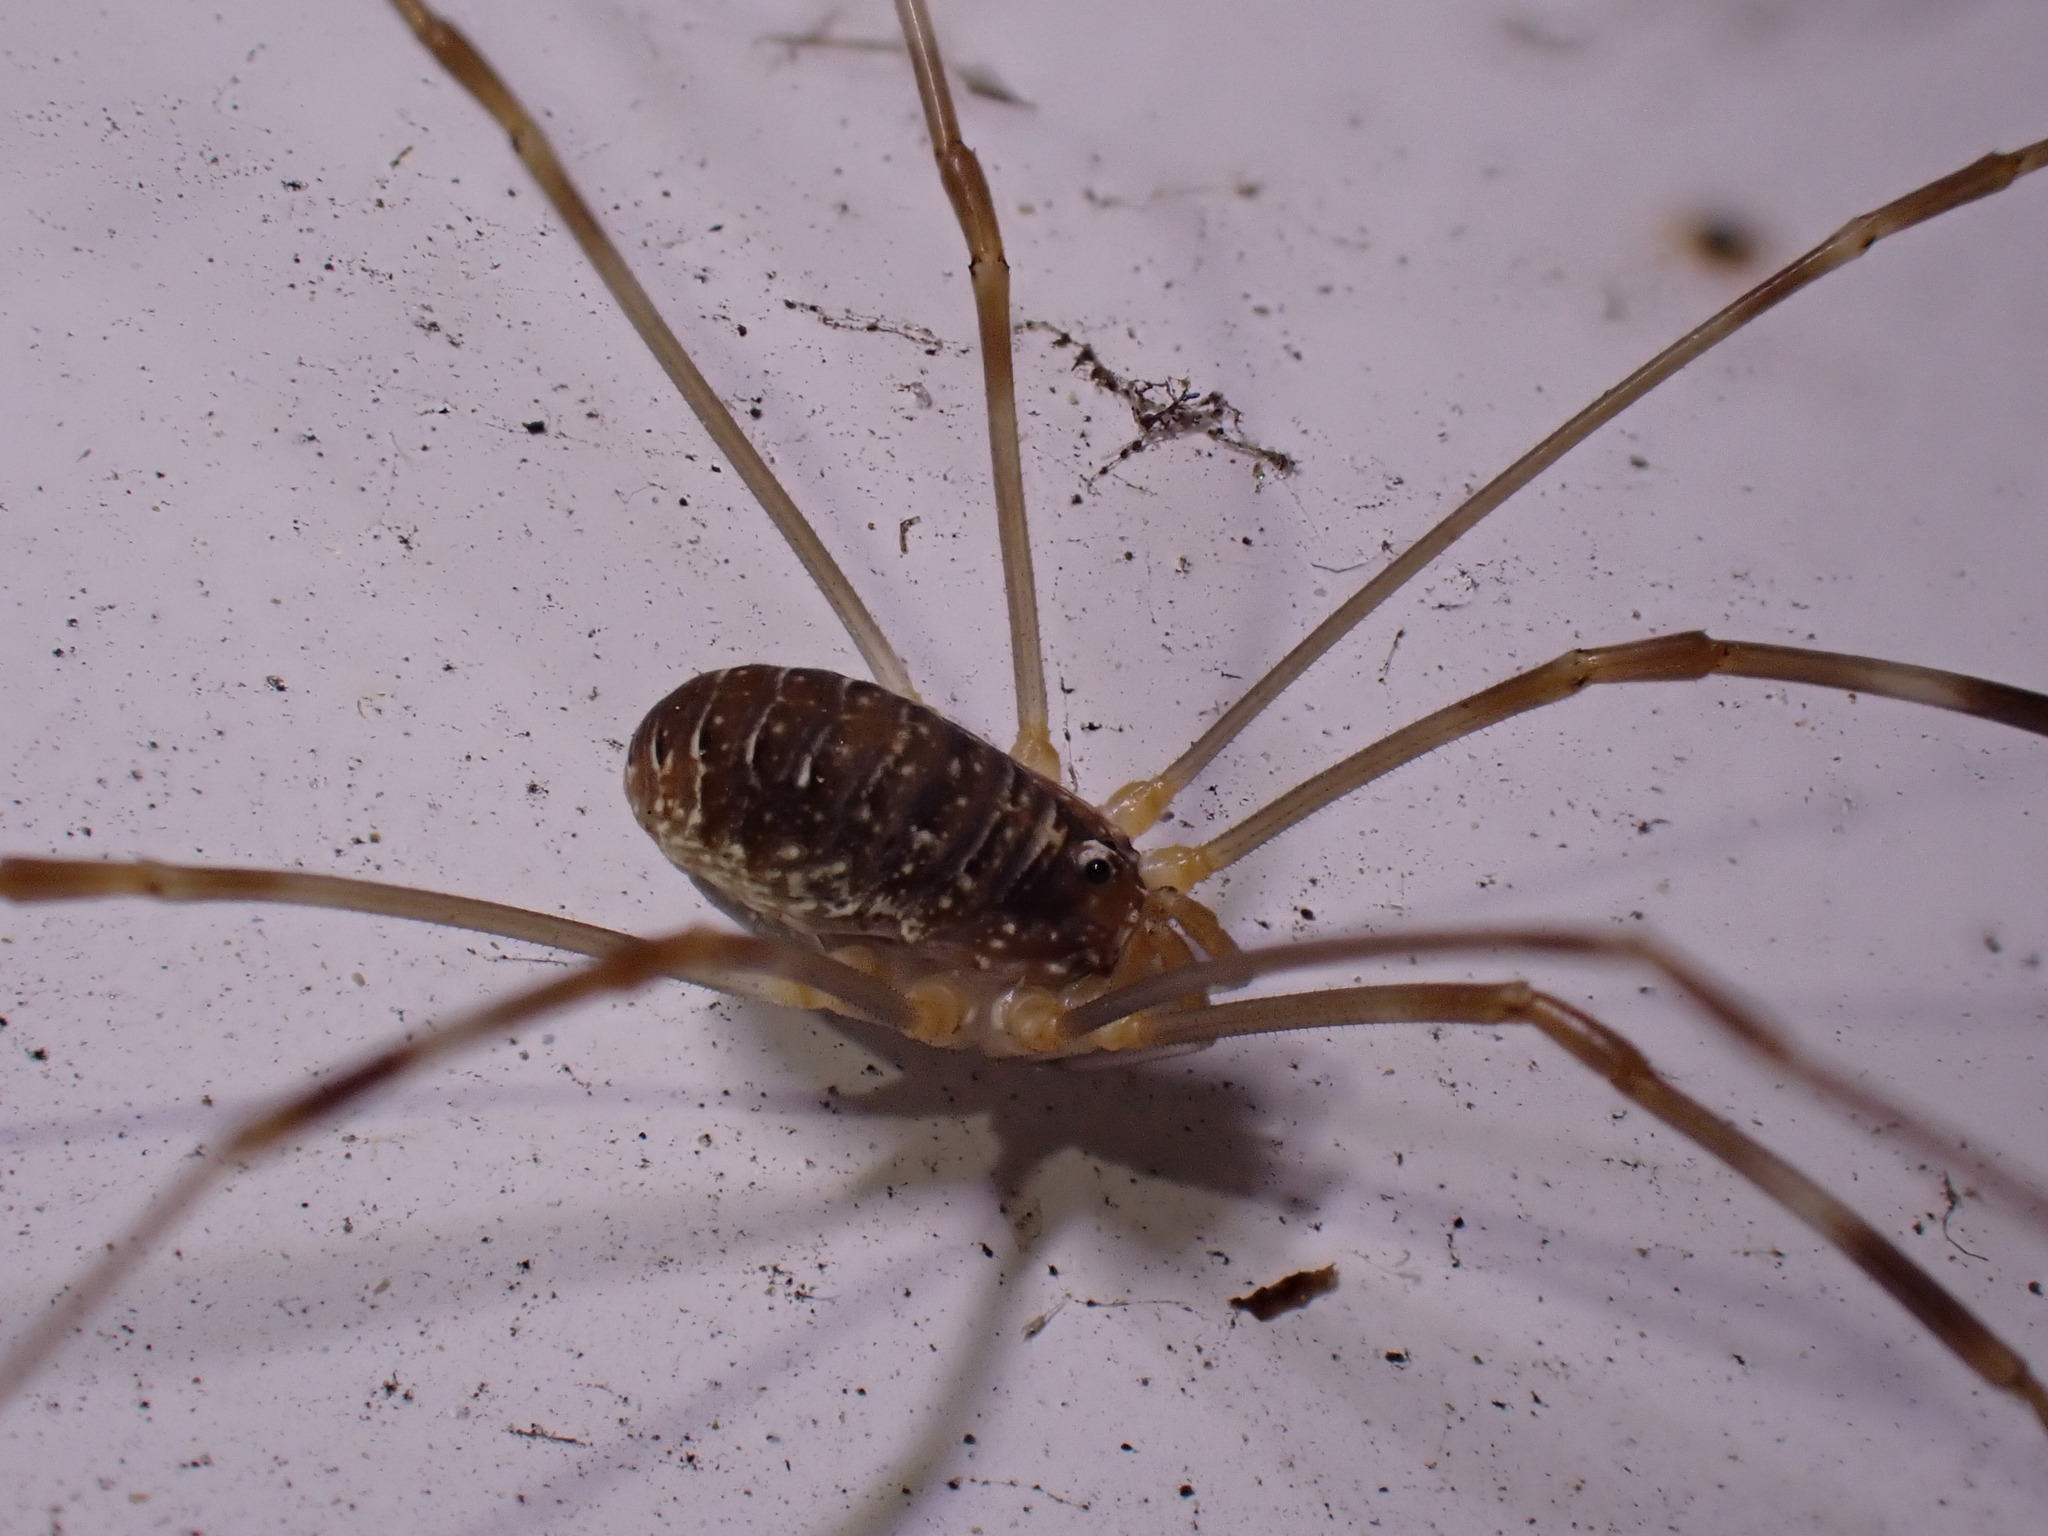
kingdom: Animalia
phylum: Arthropoda
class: Arachnida
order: Opiliones
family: Phalangiidae
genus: Opilio
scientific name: Opilio canestrinii
